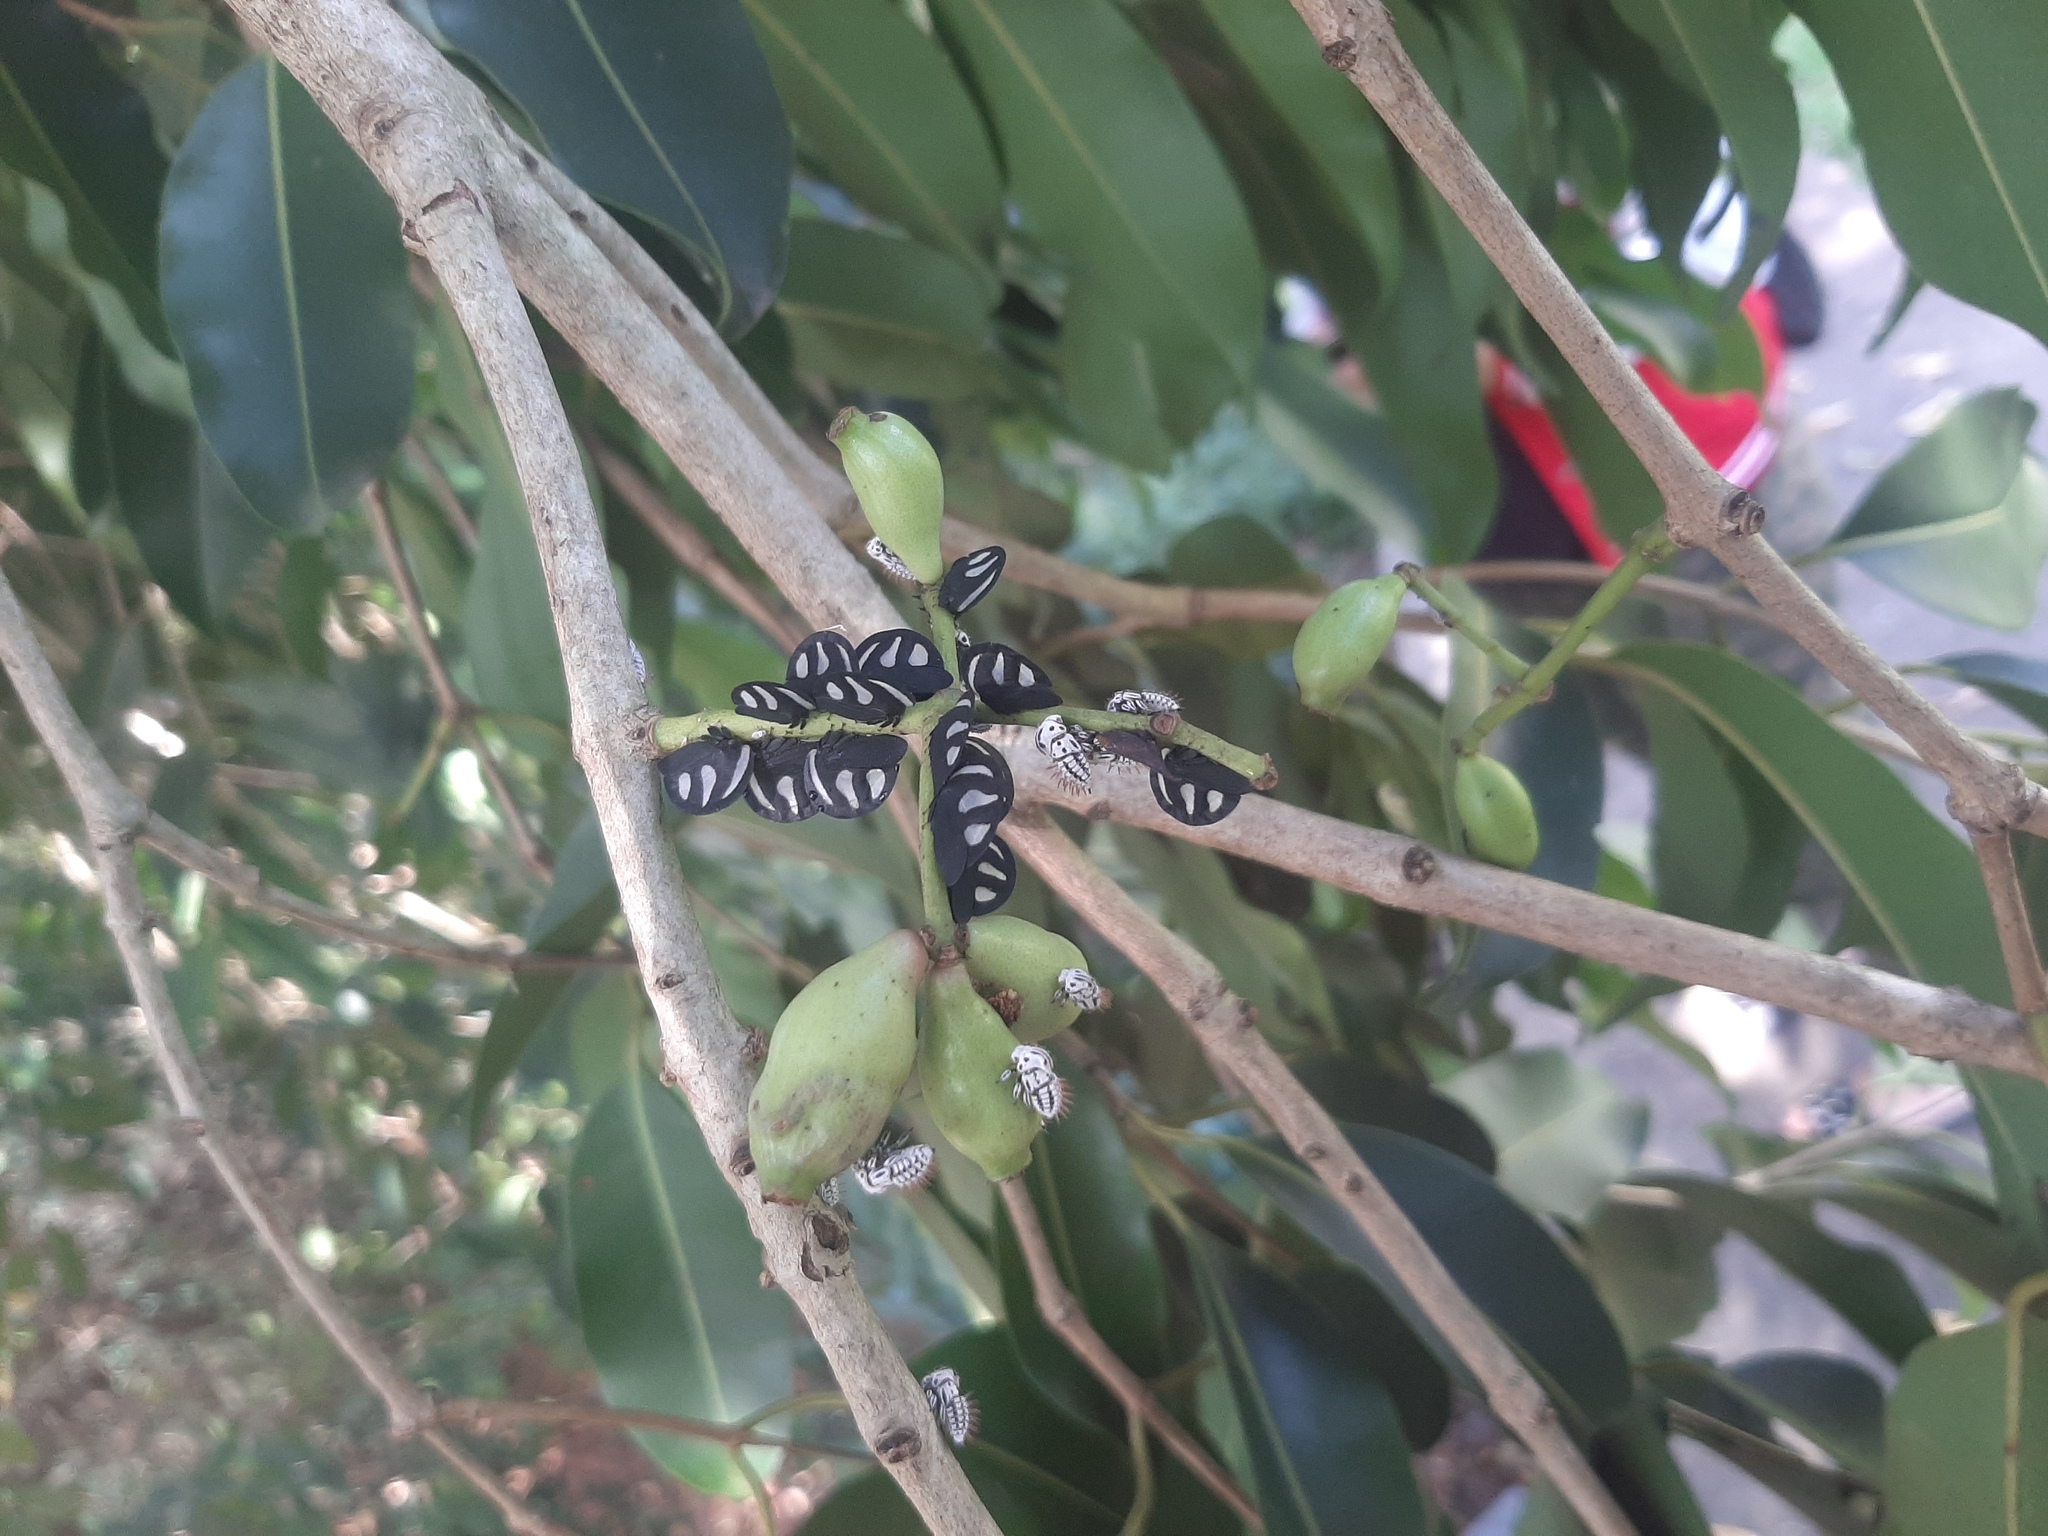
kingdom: Animalia
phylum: Arthropoda
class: Insecta
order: Hemiptera
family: Membracidae
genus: Membracis
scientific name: Membracis
